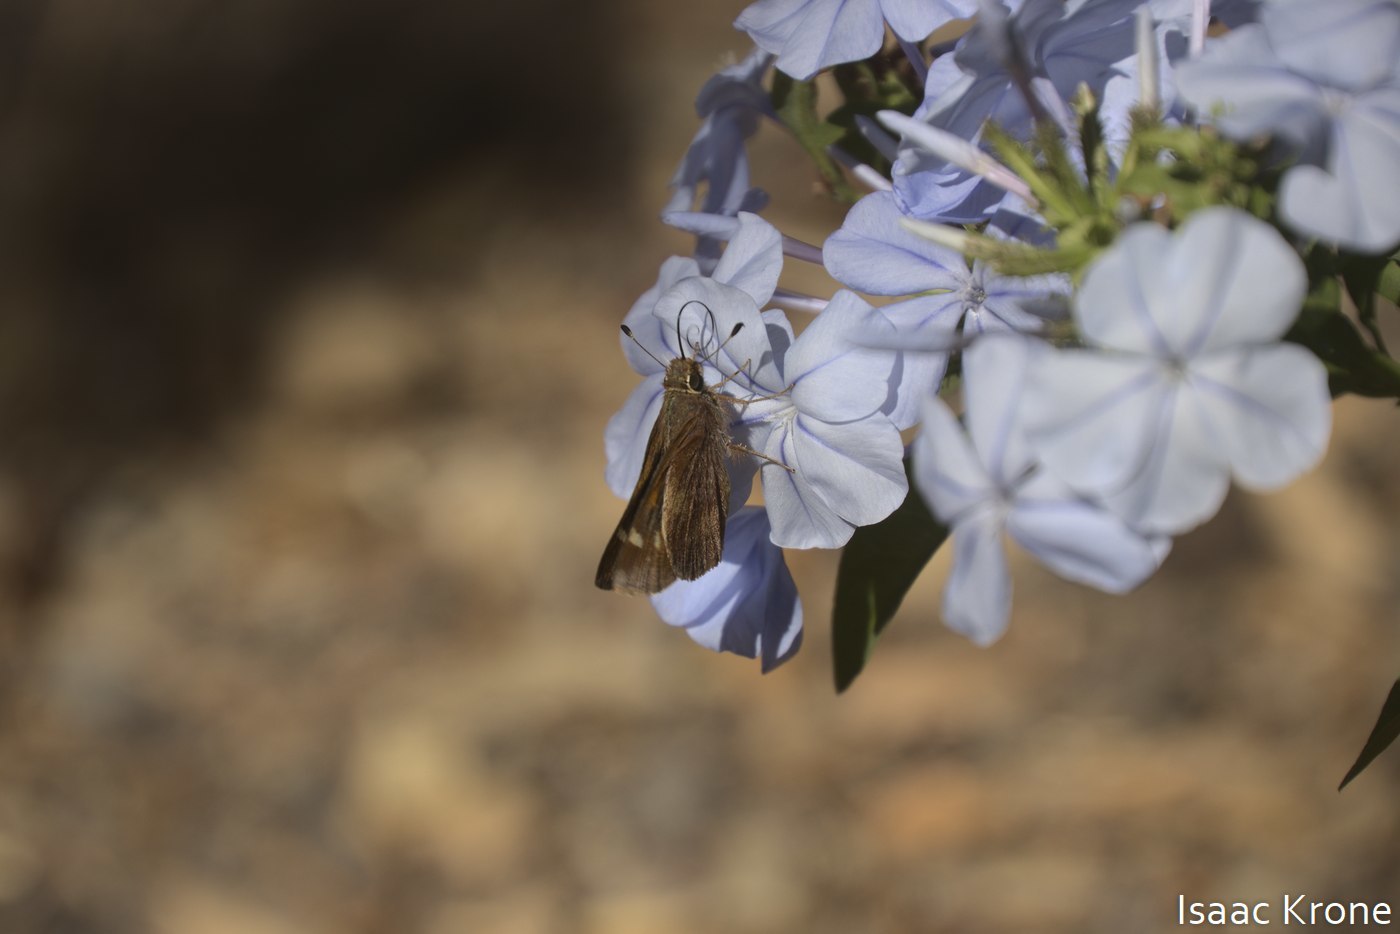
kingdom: Animalia
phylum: Arthropoda
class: Insecta
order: Lepidoptera
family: Hesperiidae
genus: Lon
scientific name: Lon melane
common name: Umber skipper
